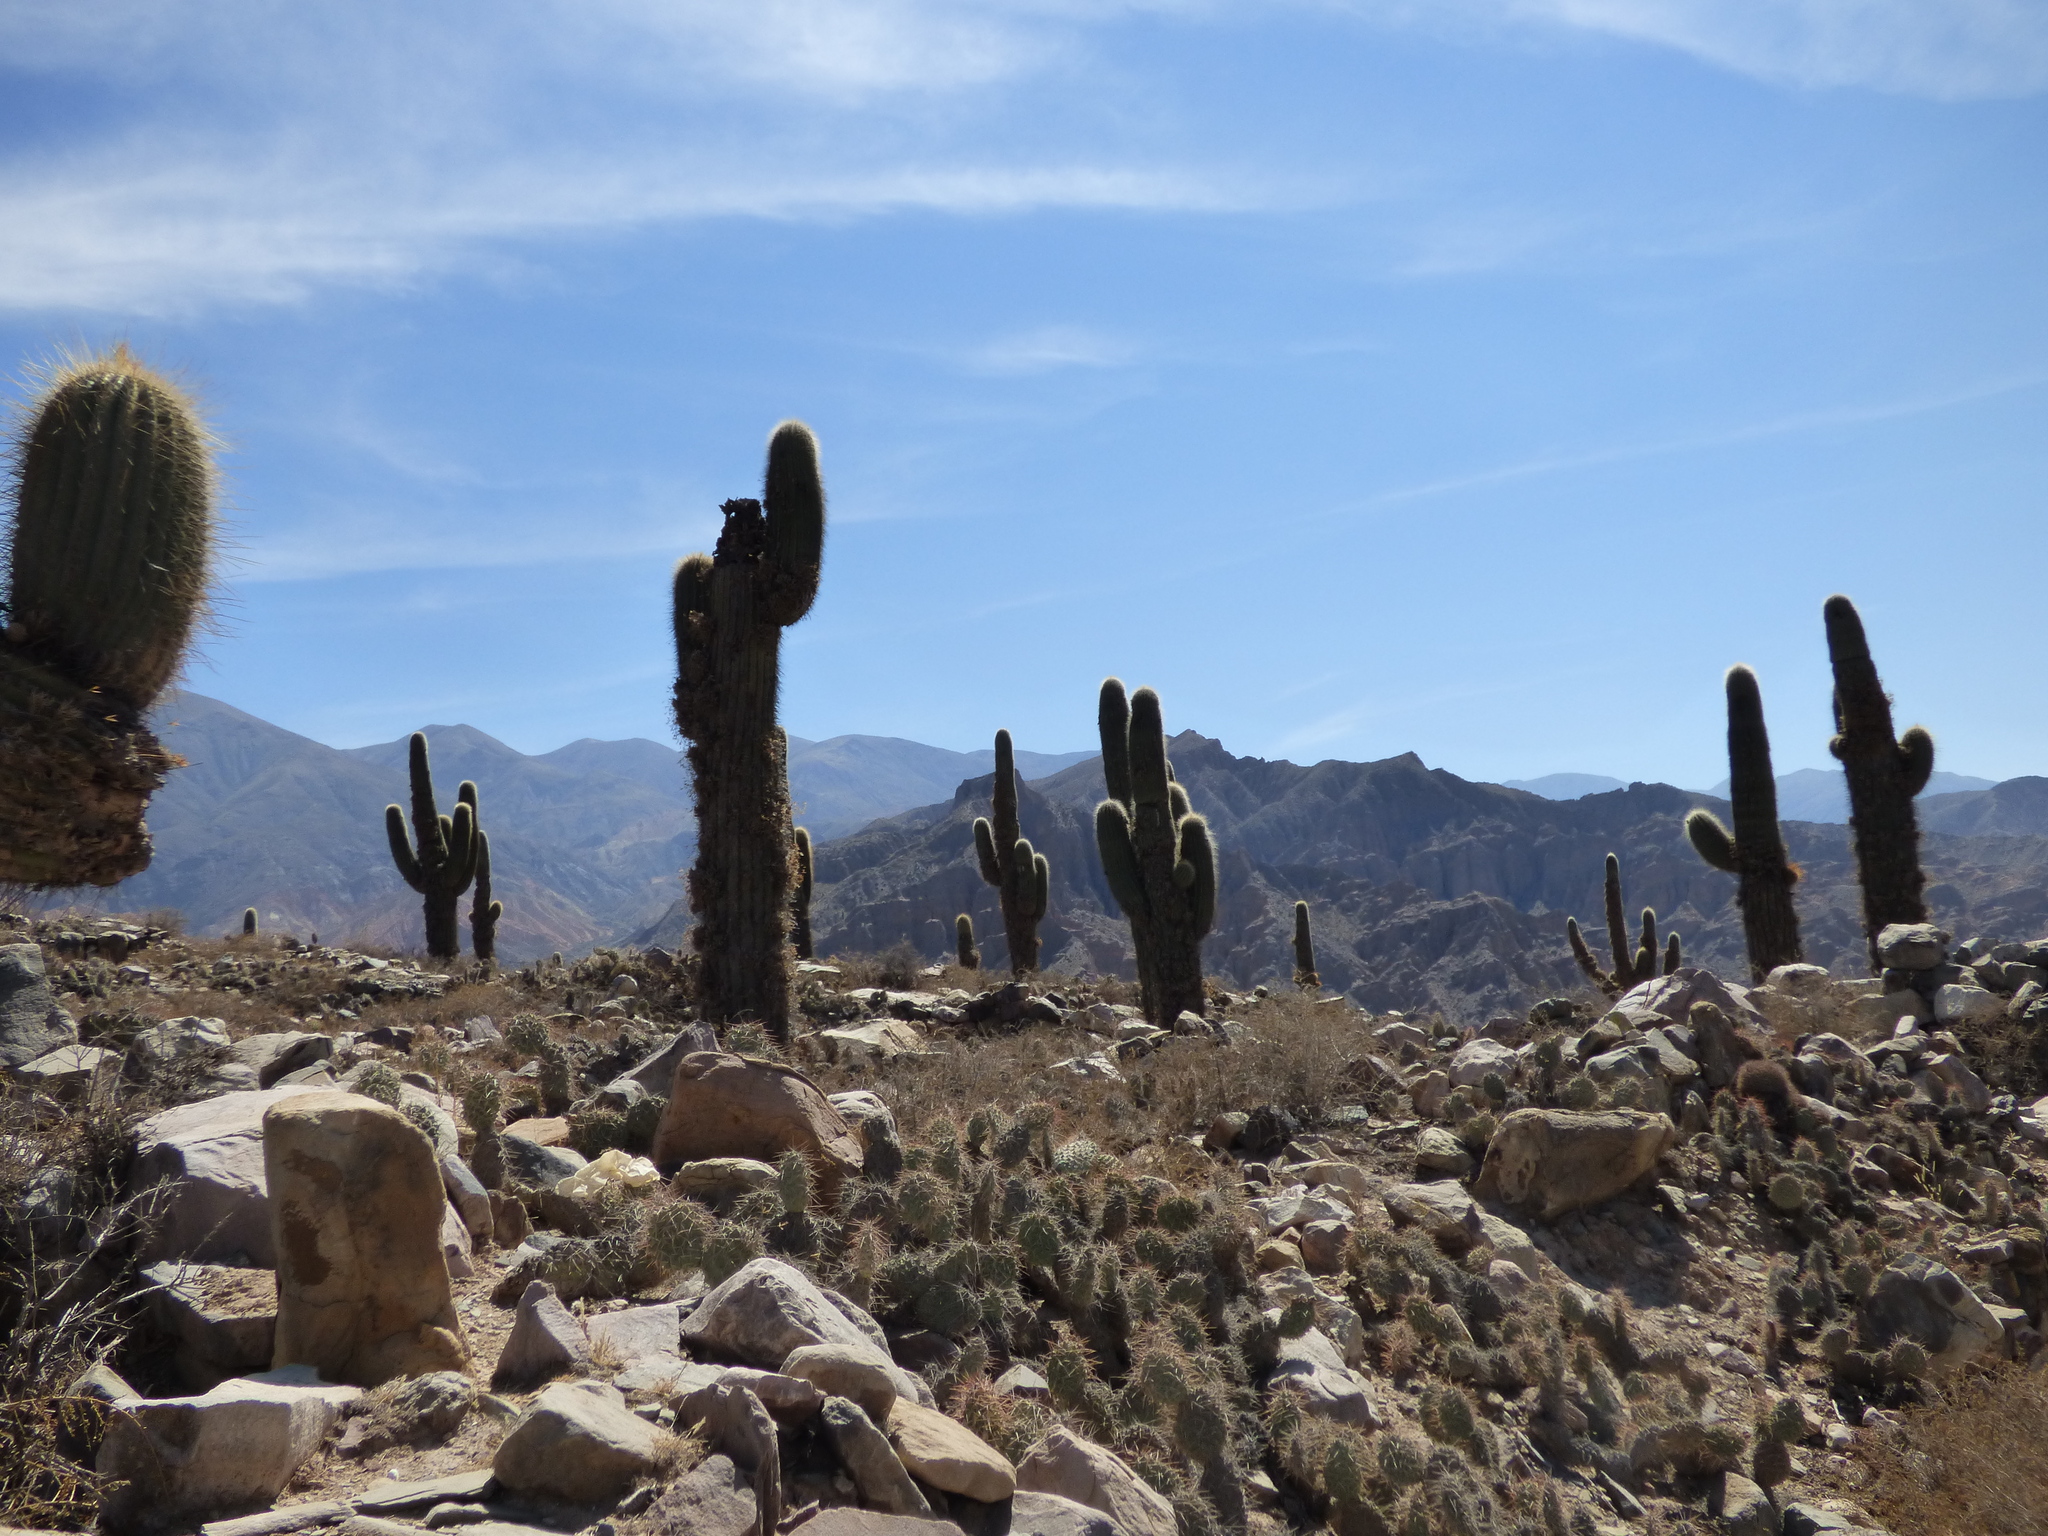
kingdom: Plantae
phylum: Tracheophyta
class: Magnoliopsida
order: Caryophyllales
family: Cactaceae
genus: Leucostele
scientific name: Leucostele atacamensis
